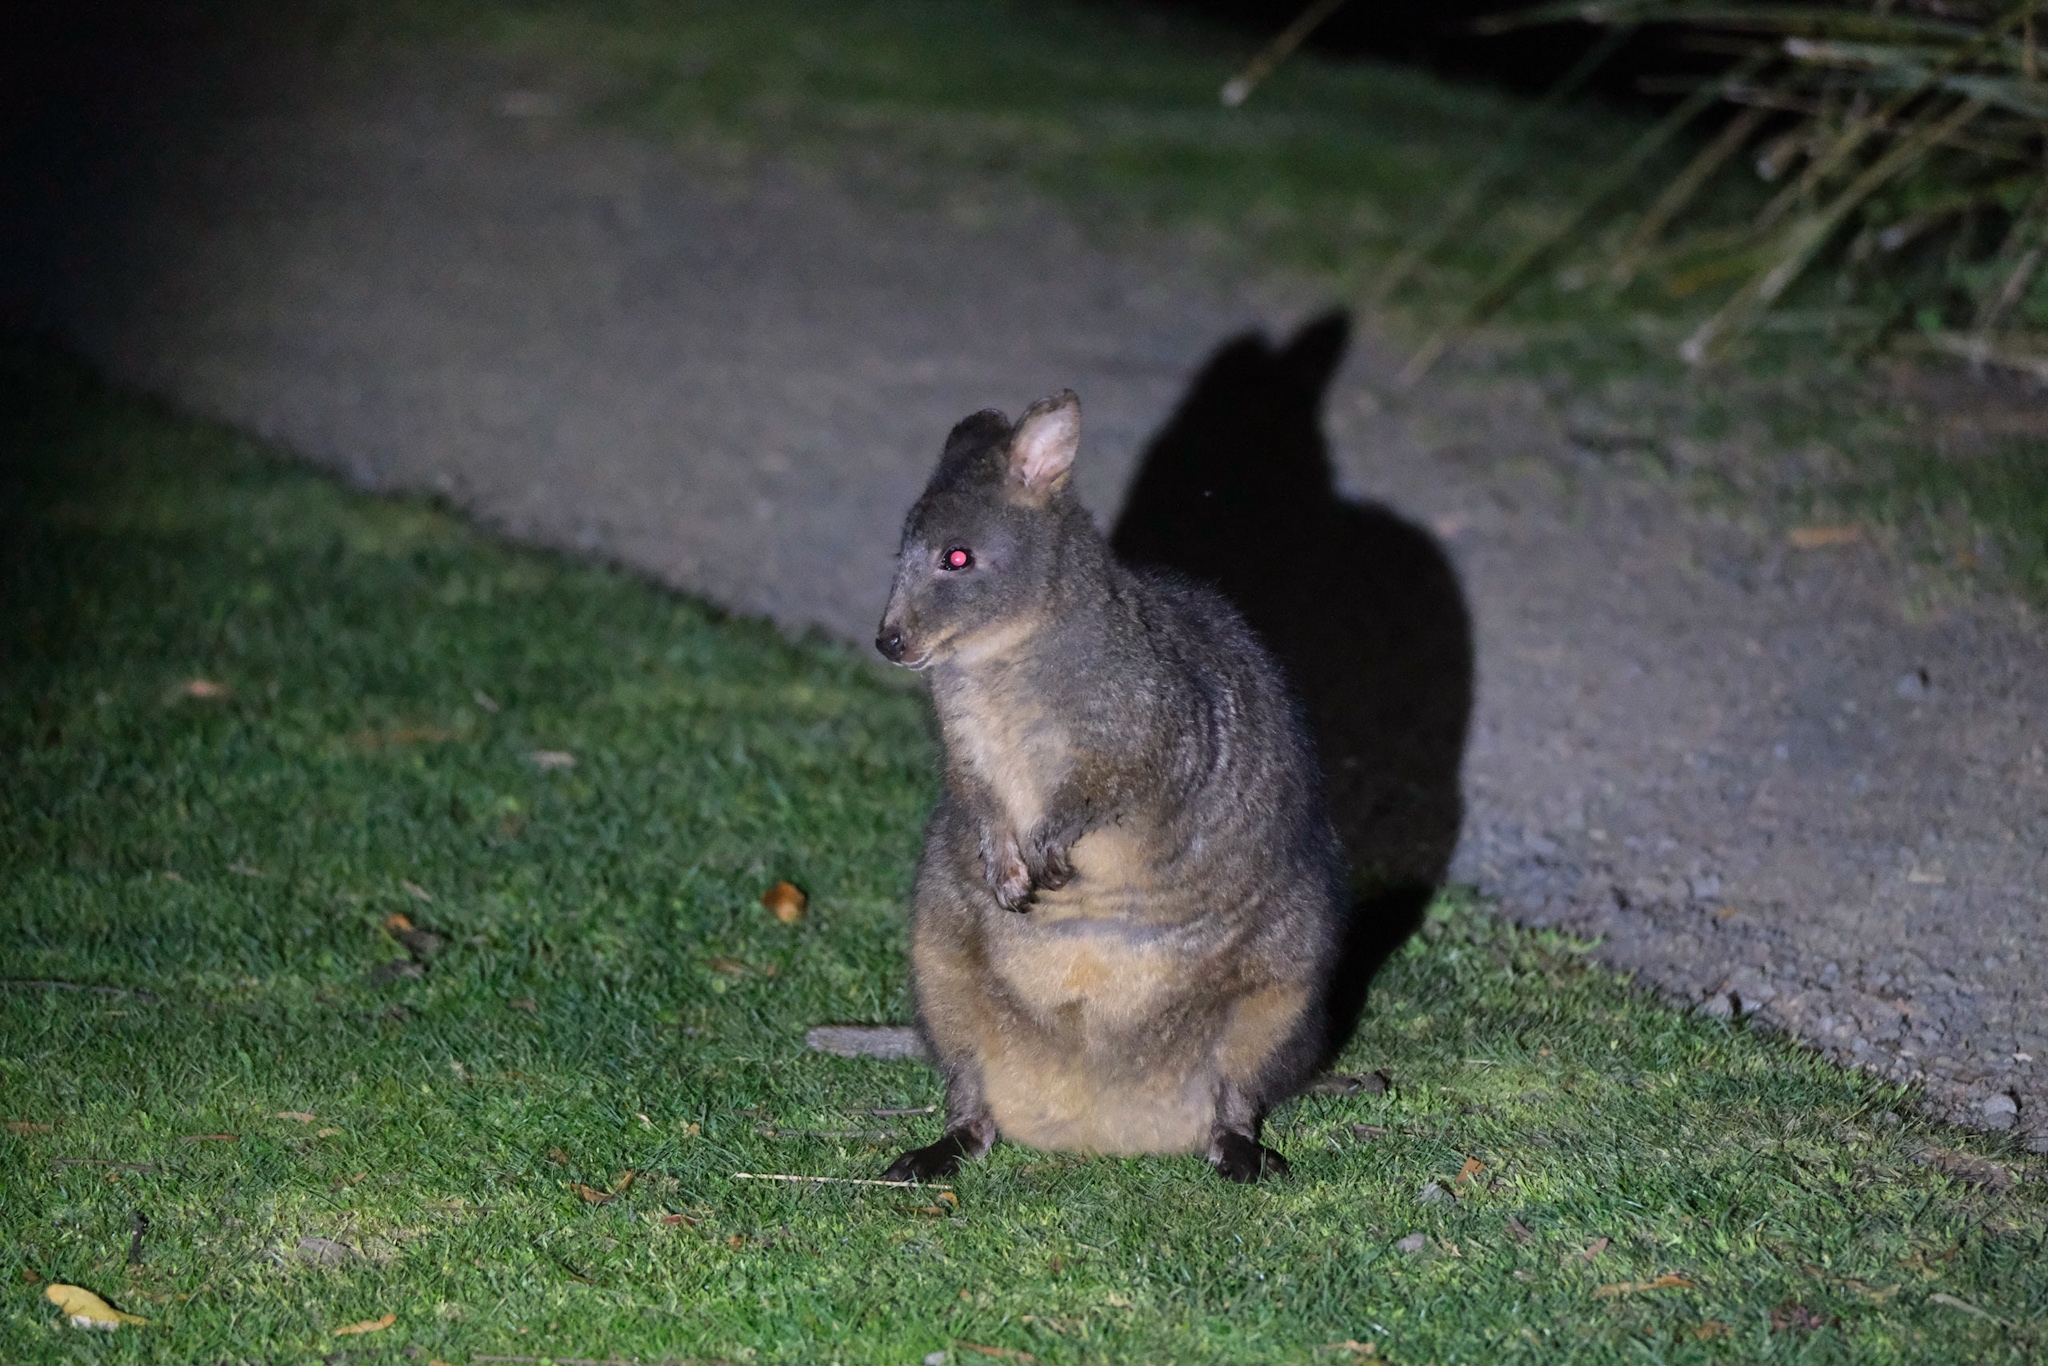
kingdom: Animalia
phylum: Chordata
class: Mammalia
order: Diprotodontia
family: Macropodidae
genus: Thylogale
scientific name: Thylogale billardierii
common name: Tasmanian pademelon
